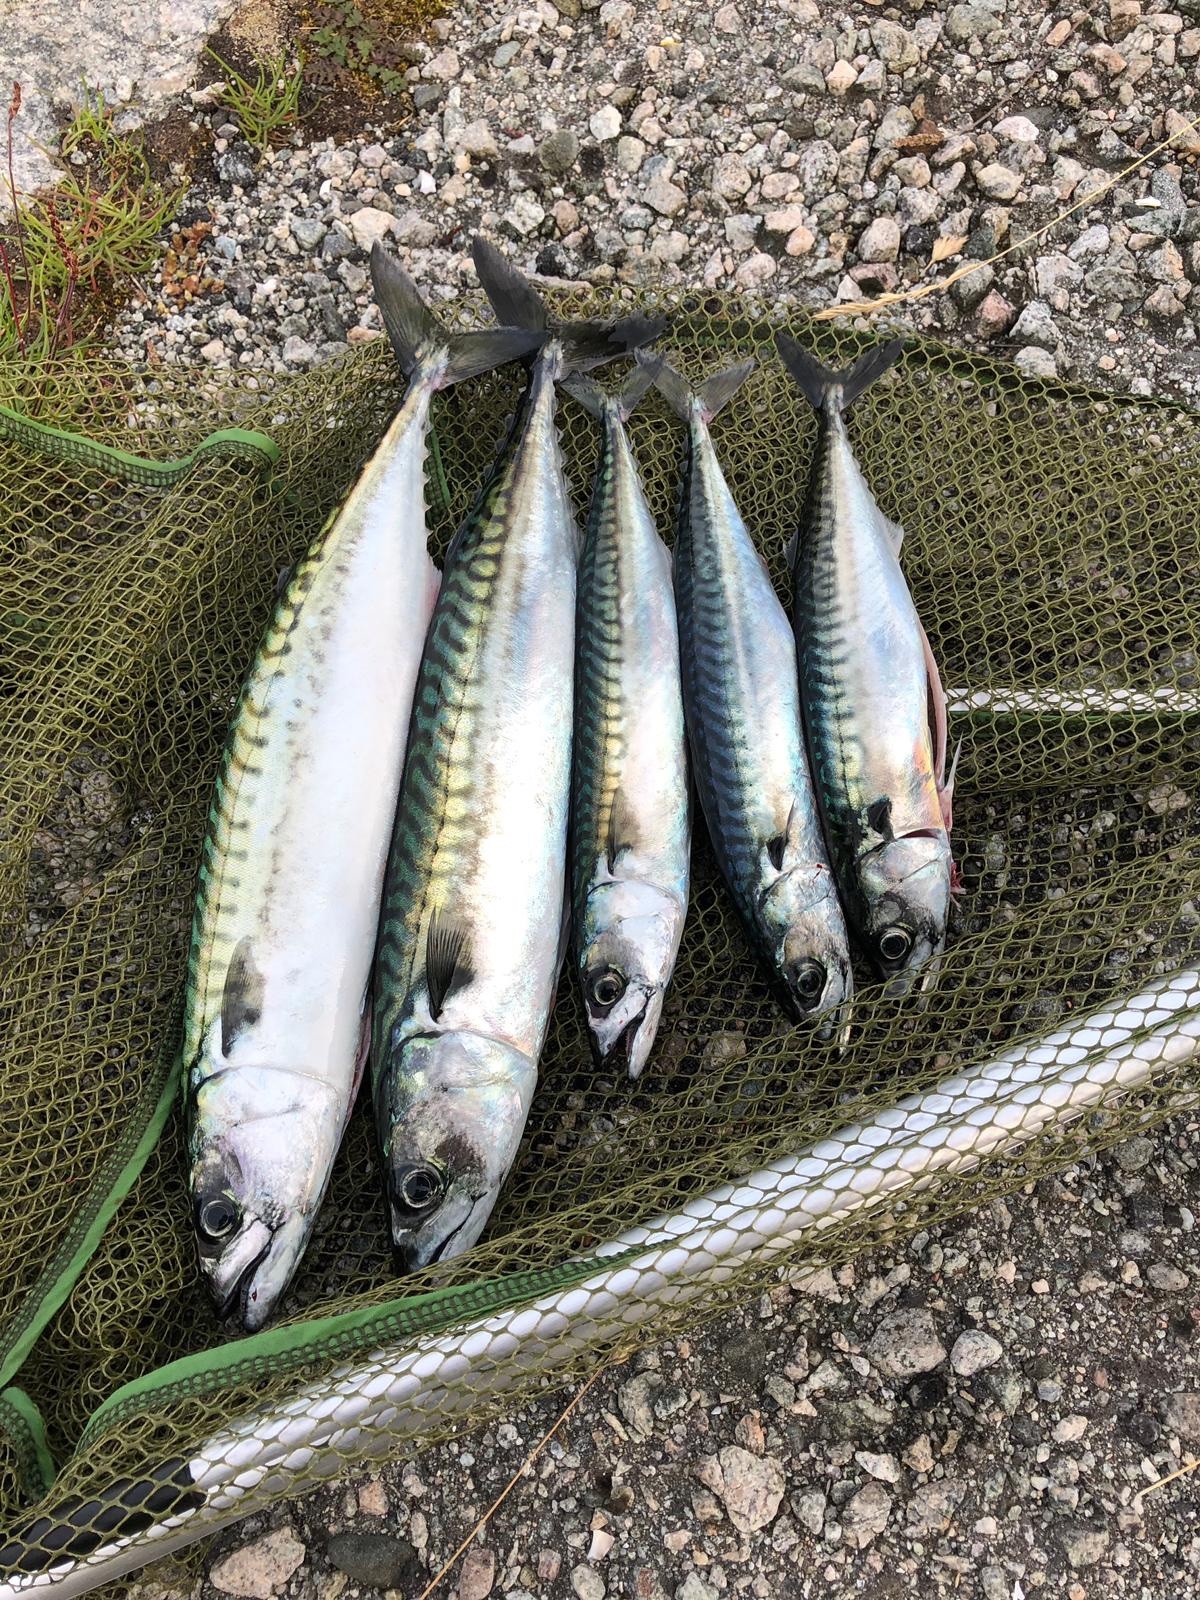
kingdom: Animalia
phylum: Chordata
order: Perciformes
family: Scombridae
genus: Scomber
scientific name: Scomber scombrus
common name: Mackerel
